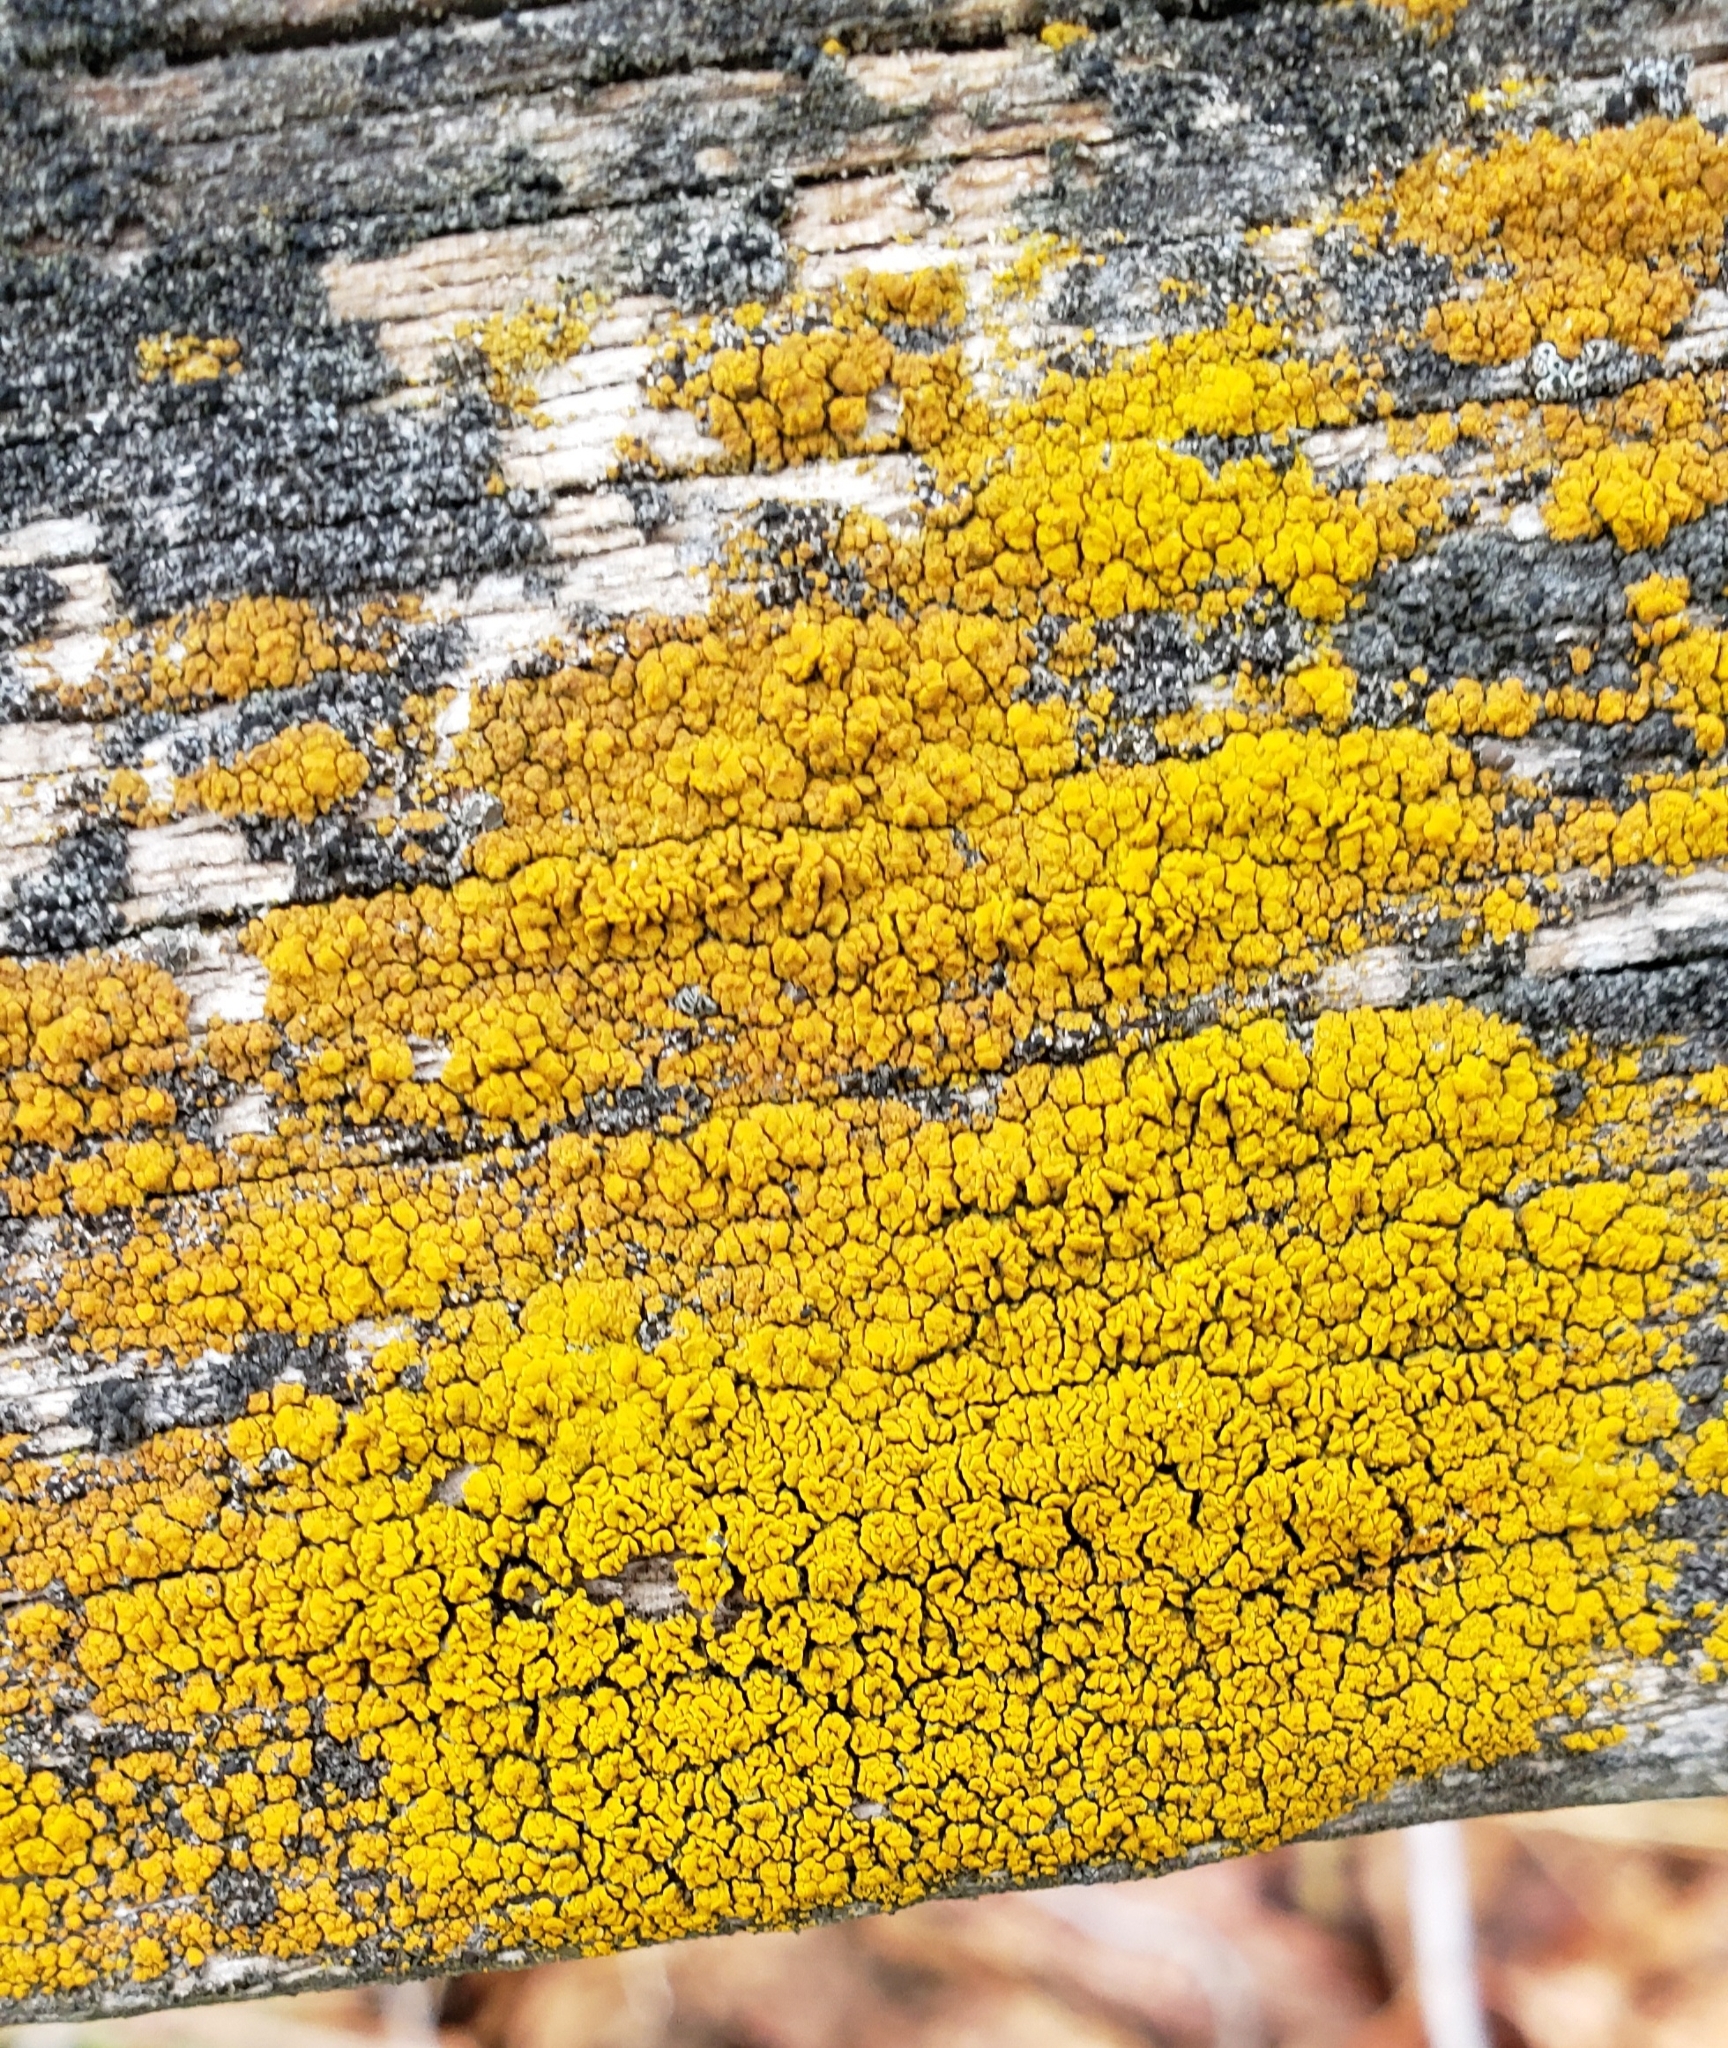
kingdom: Fungi
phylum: Ascomycota
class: Candelariomycetes
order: Candelariales
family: Candelariaceae
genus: Candelariella
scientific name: Candelariella vitellina
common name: Common goldspeck
